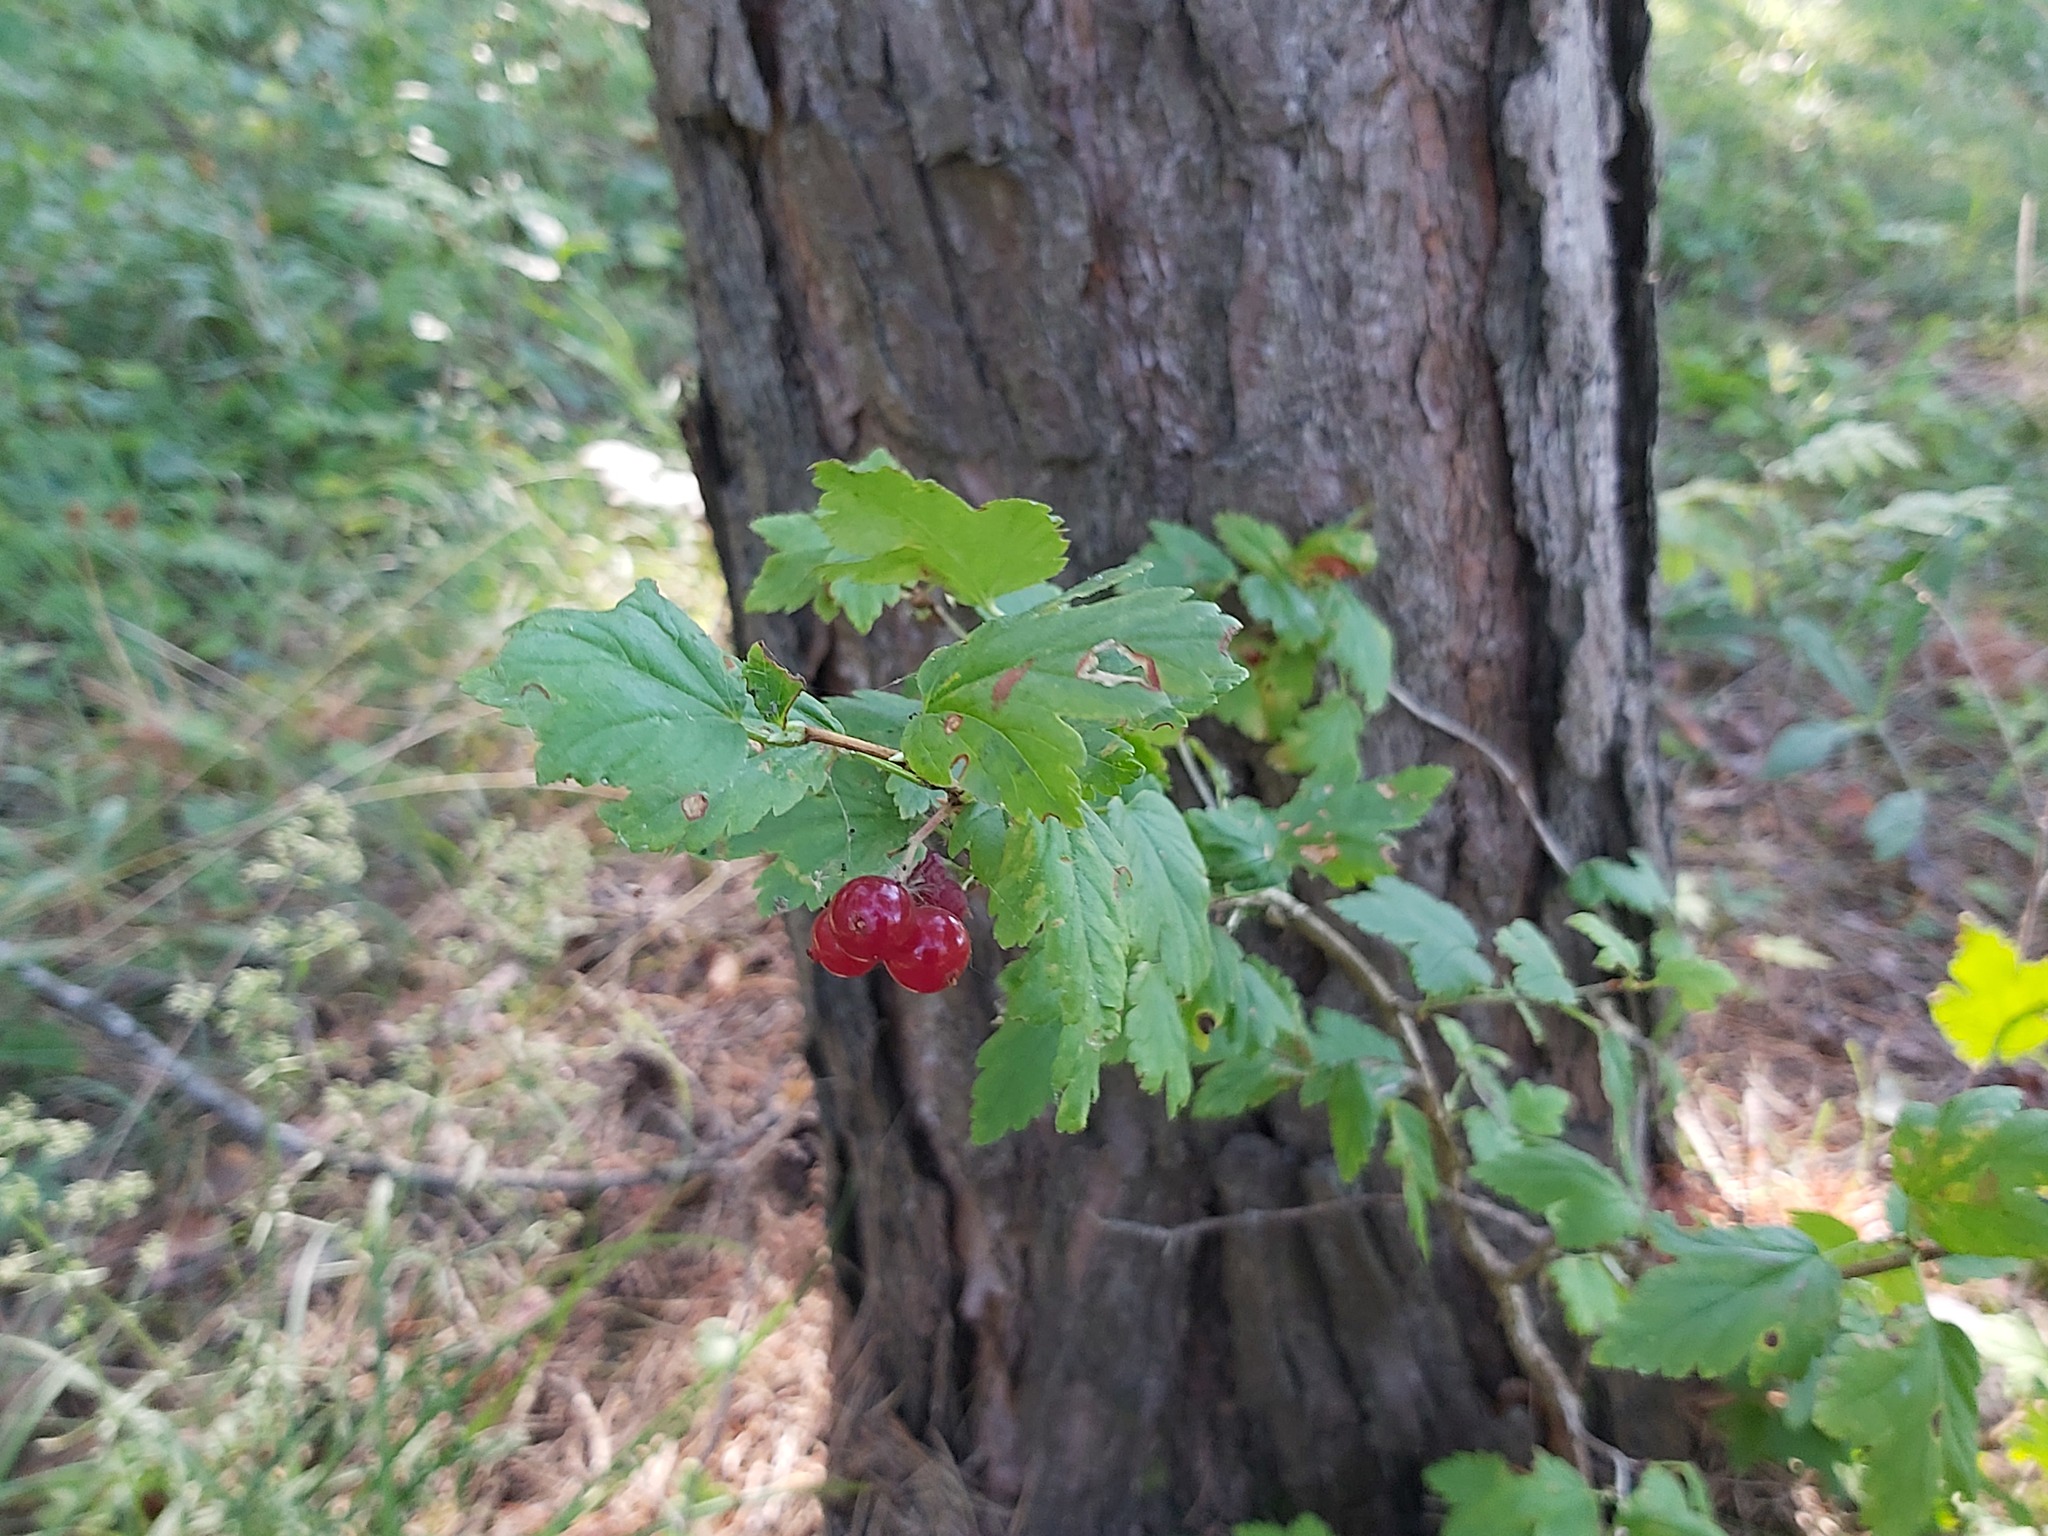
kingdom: Plantae
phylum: Tracheophyta
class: Magnoliopsida
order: Saxifragales
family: Grossulariaceae
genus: Ribes
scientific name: Ribes alpinum
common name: Alpine currant
